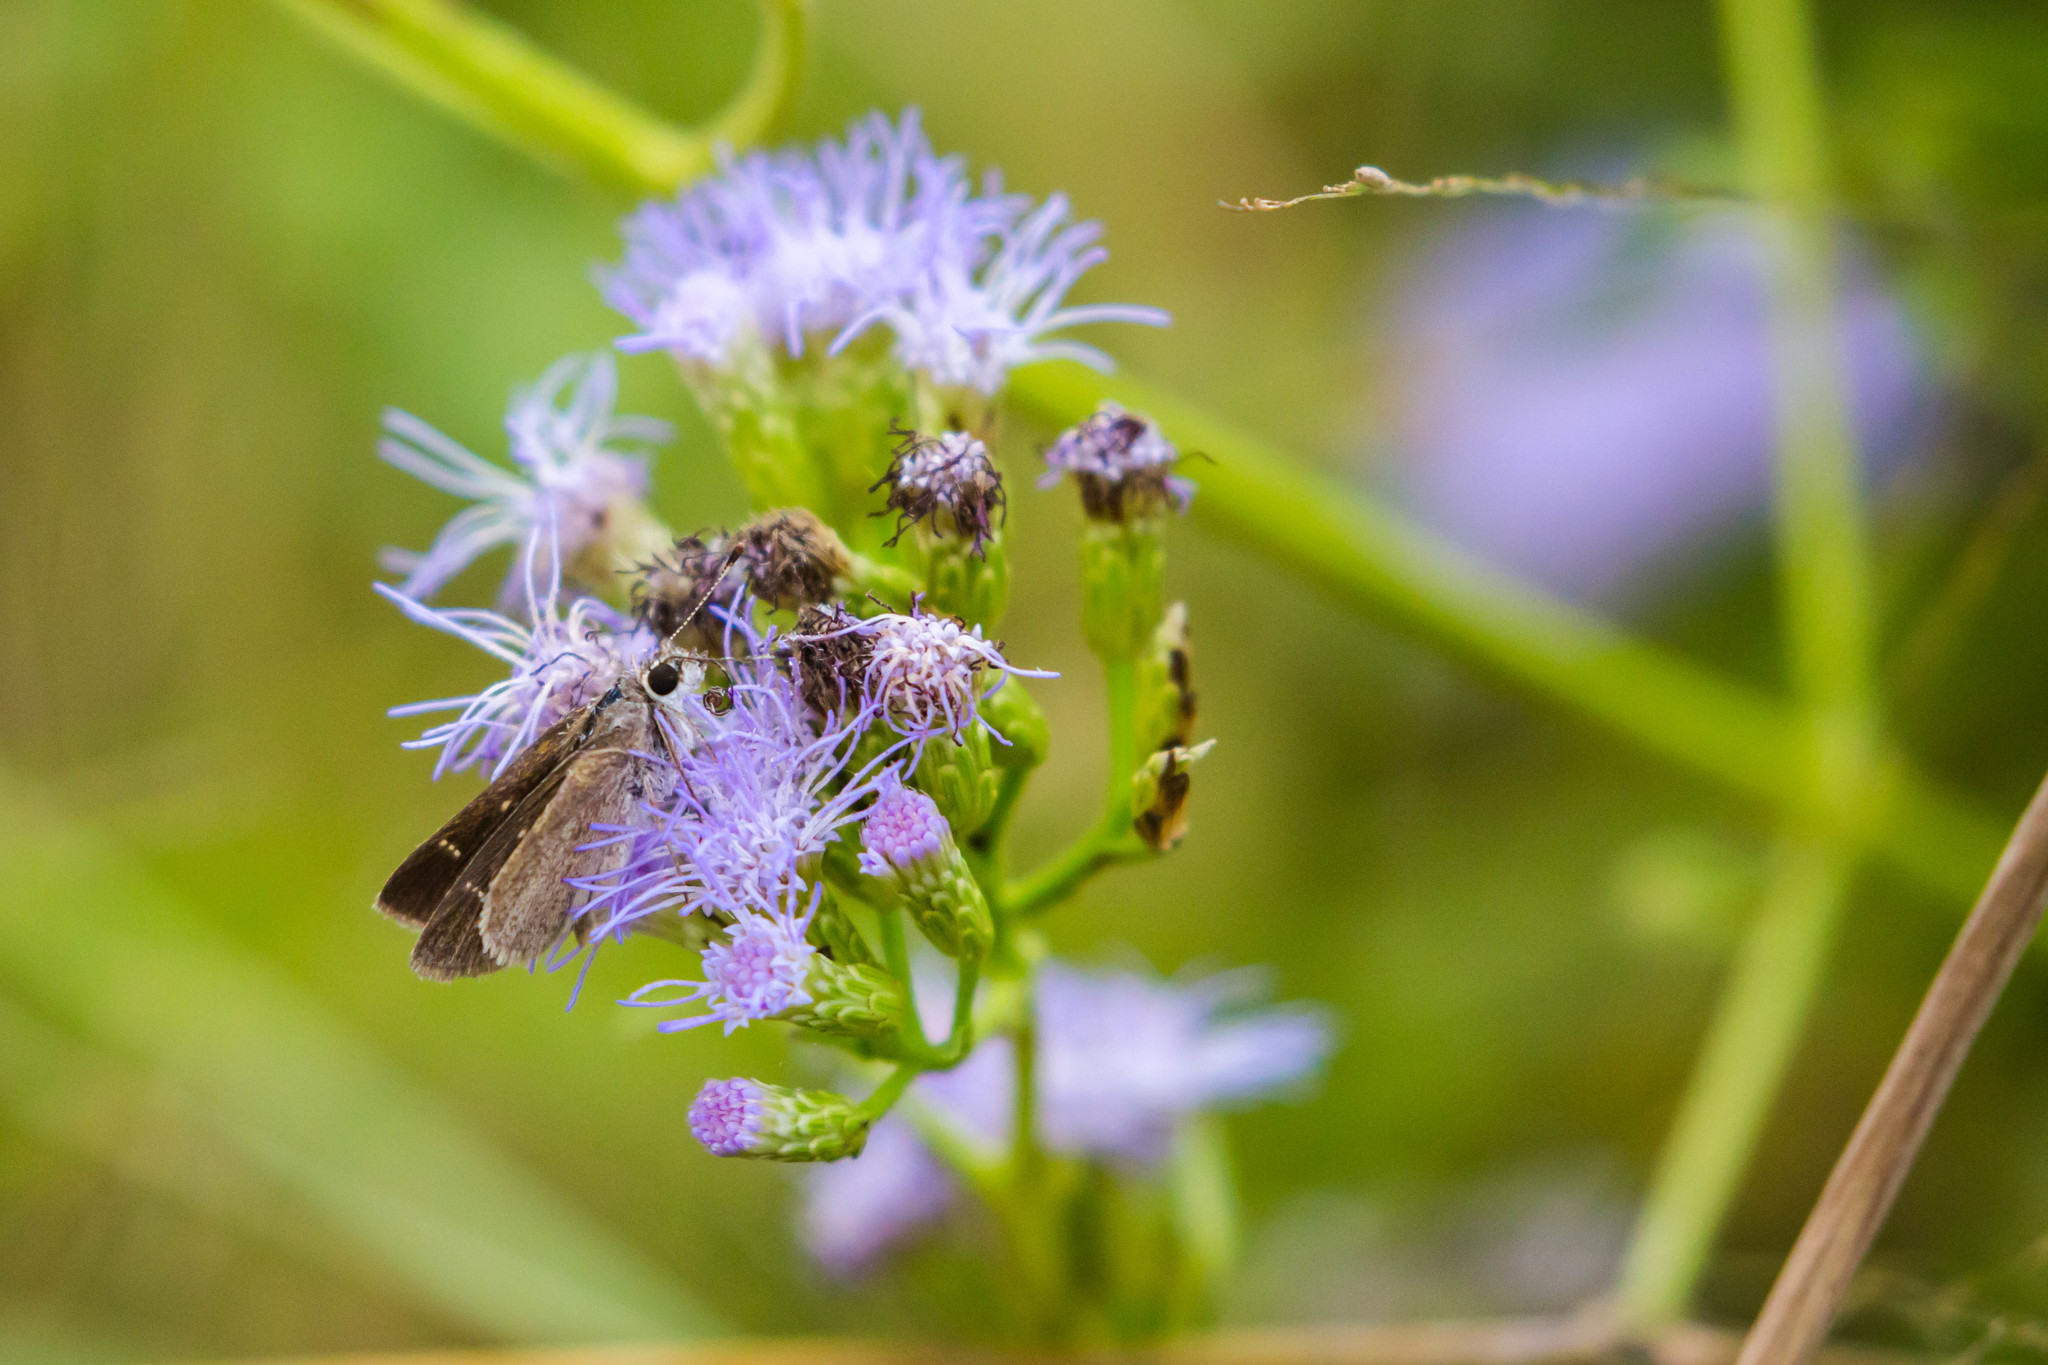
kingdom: Animalia
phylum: Arthropoda
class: Insecta
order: Lepidoptera
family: Hesperiidae
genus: Lerodea
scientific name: Lerodea eufala
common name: Eufala skipper
